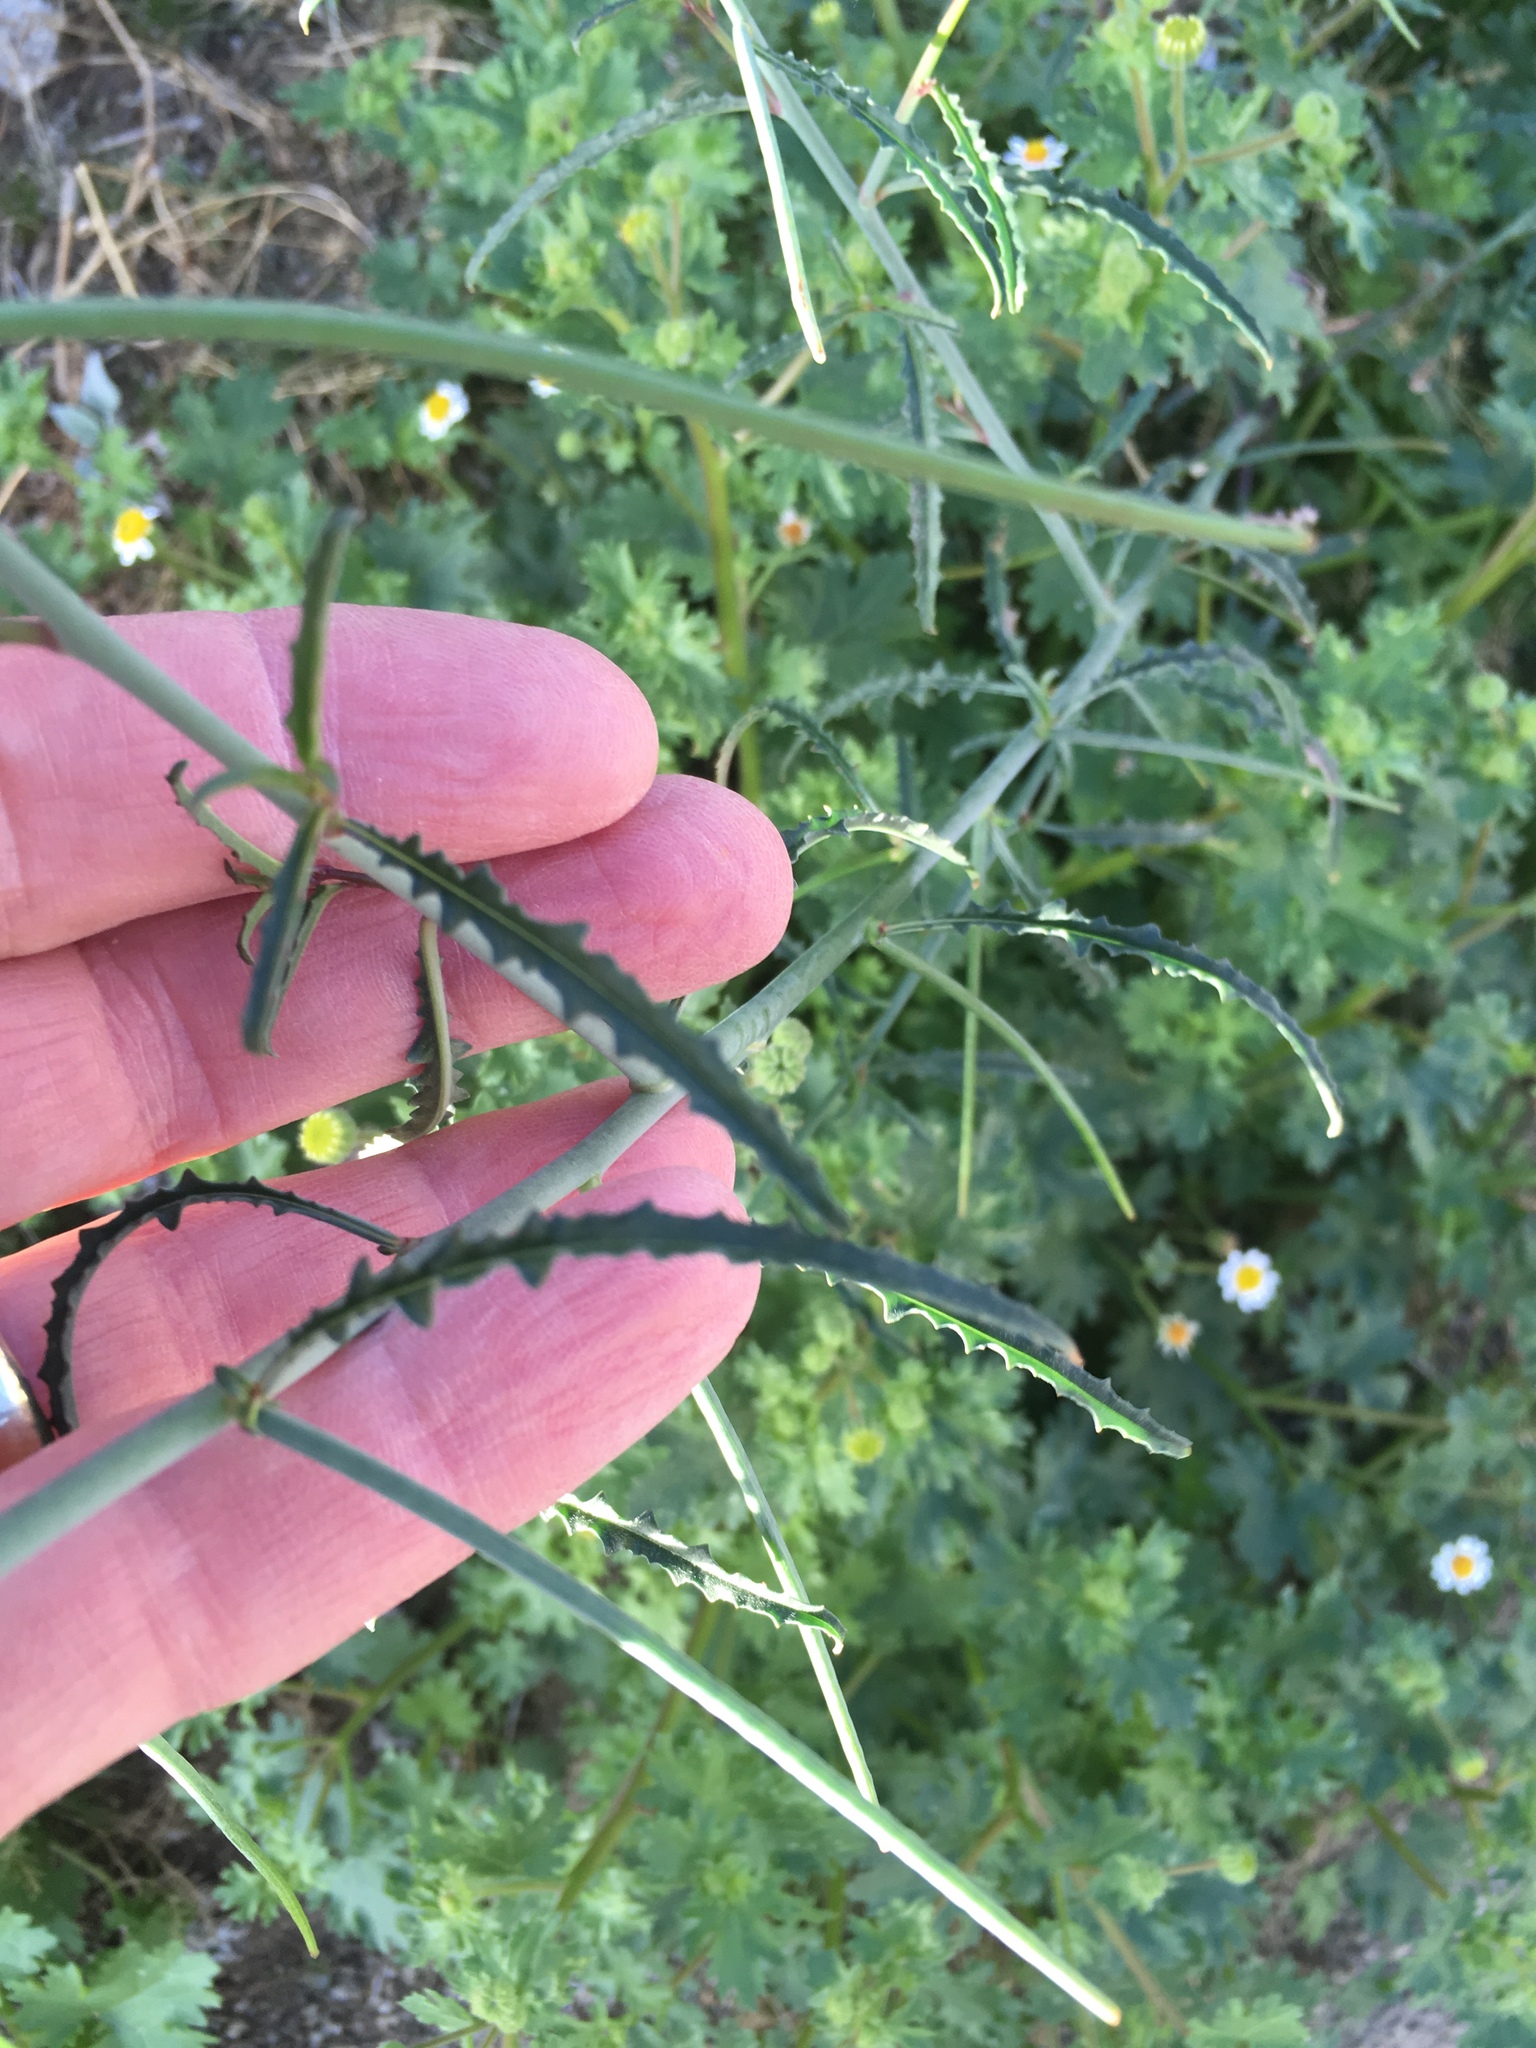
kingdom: Plantae
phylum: Tracheophyta
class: Magnoliopsida
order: Myrtales
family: Onagraceae
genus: Eulobus
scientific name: Eulobus californicus
